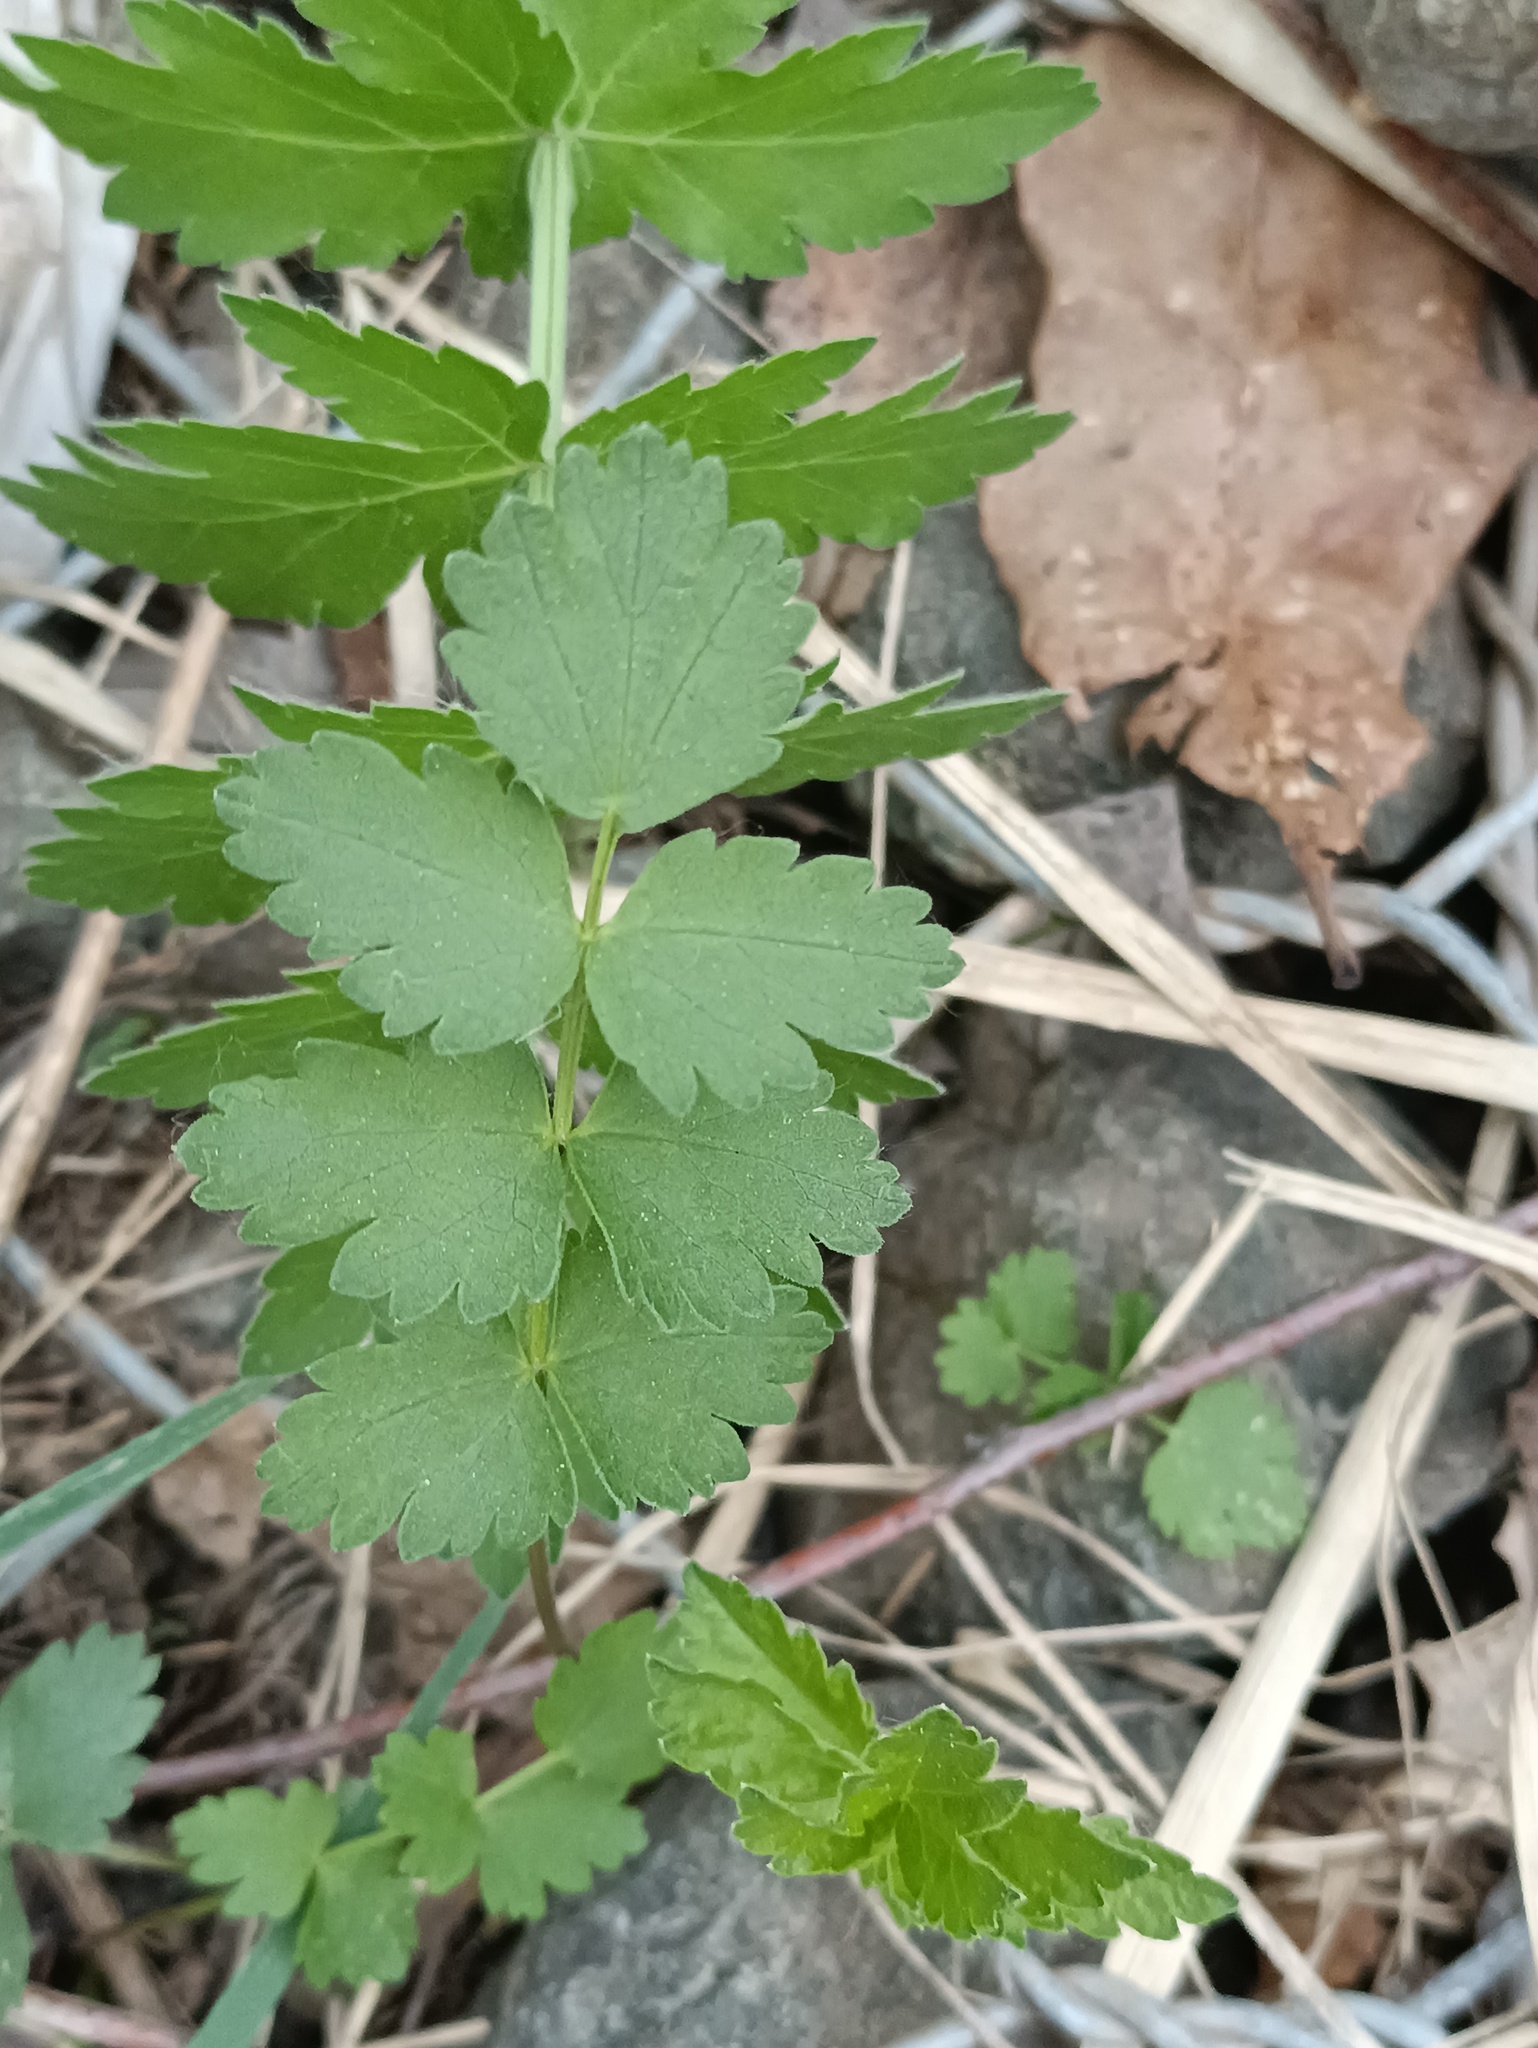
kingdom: Plantae
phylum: Tracheophyta
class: Magnoliopsida
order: Apiales
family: Apiaceae
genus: Pimpinella
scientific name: Pimpinella saxifraga
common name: Burnet-saxifrage
